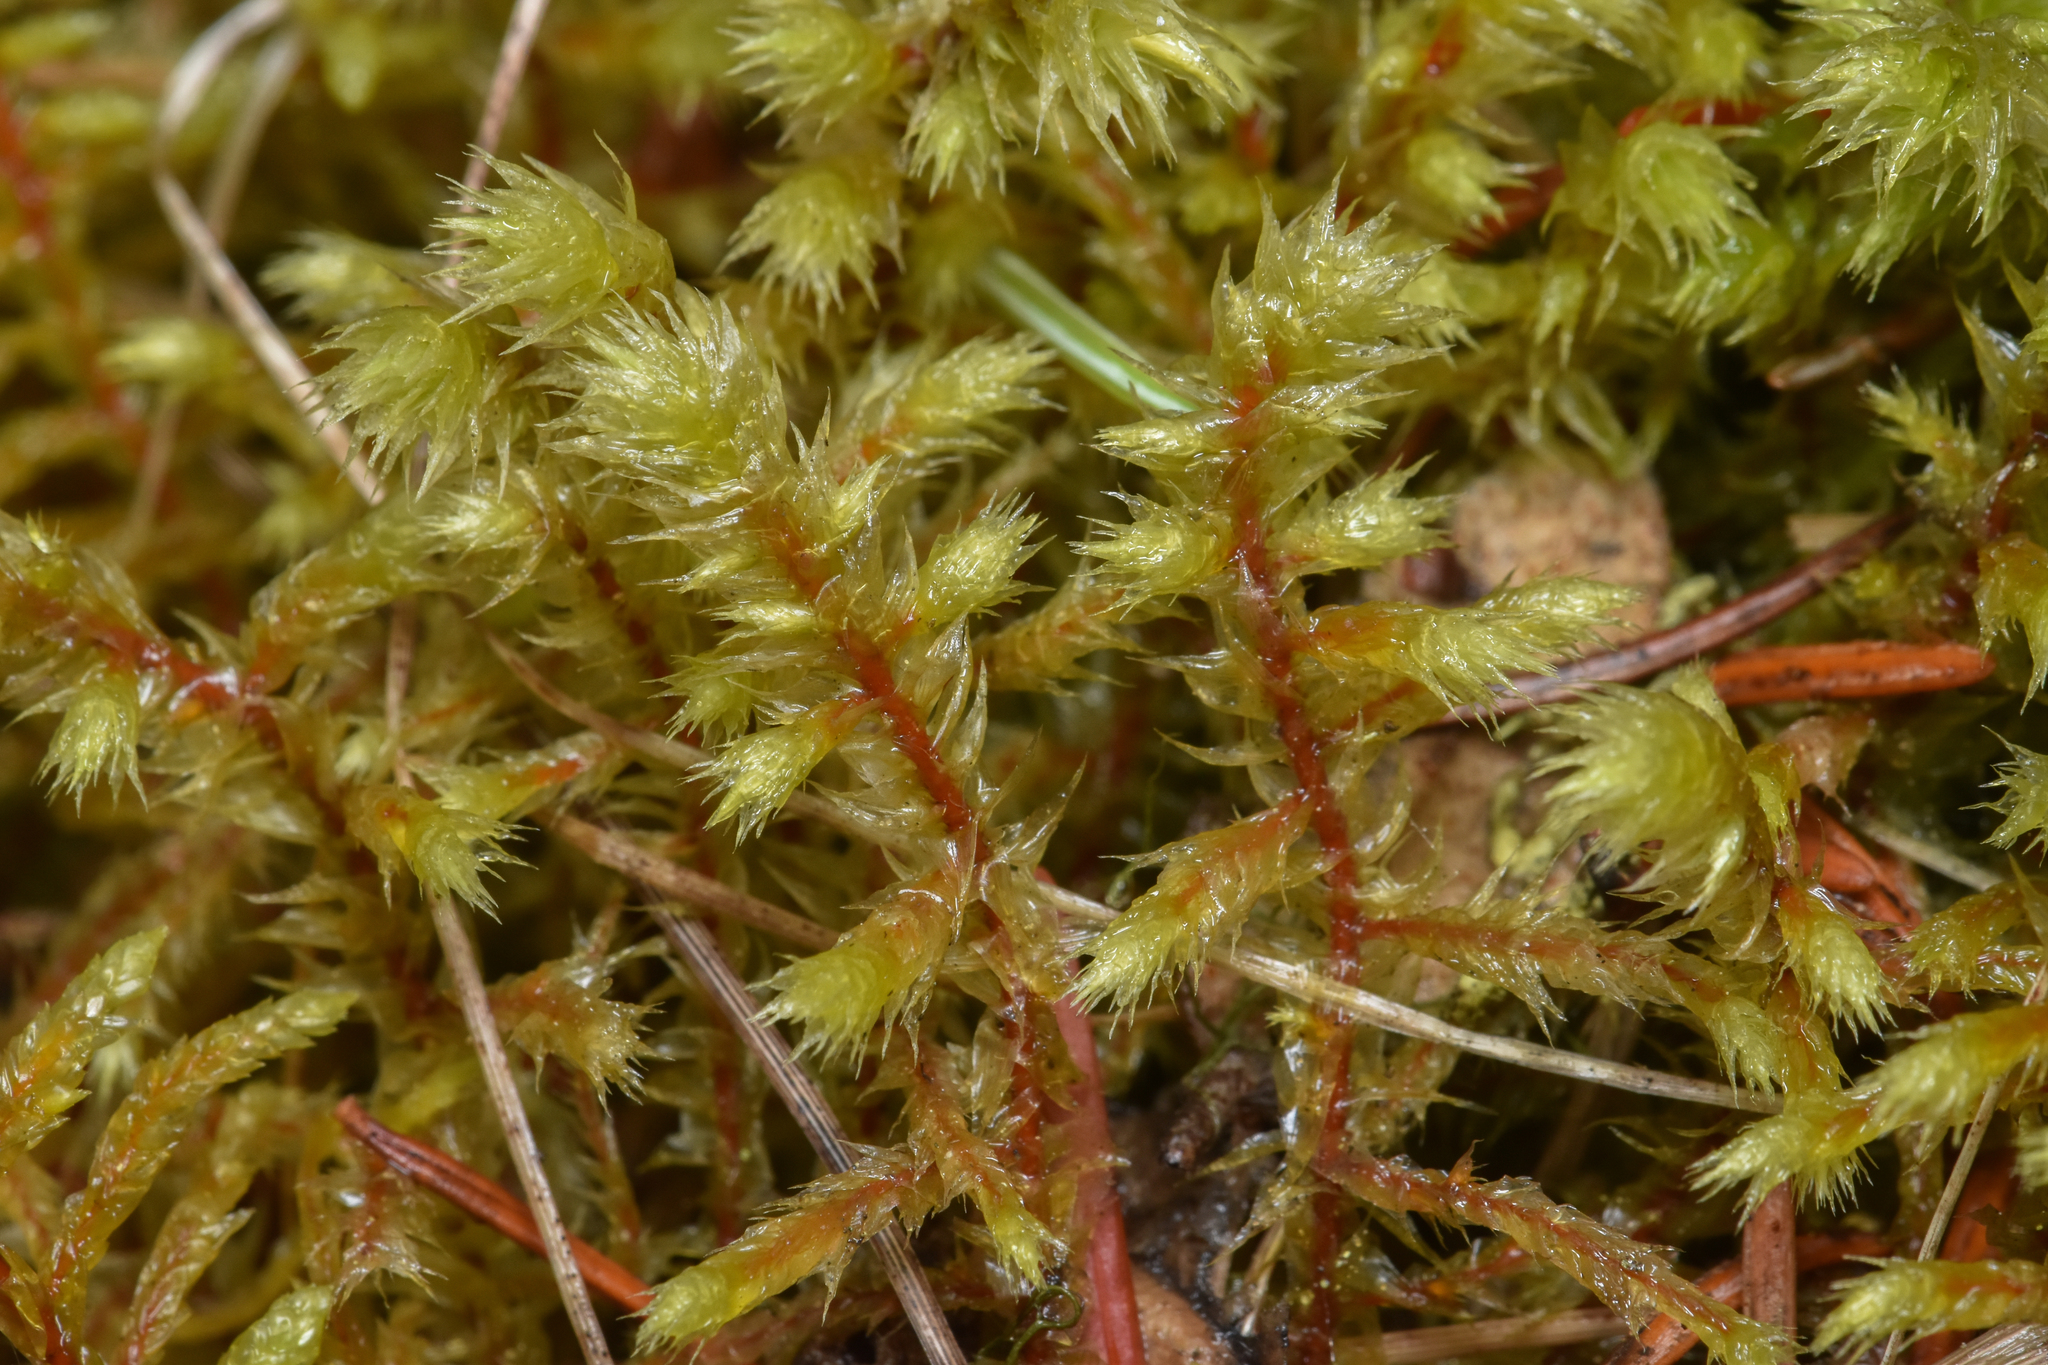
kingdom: Plantae
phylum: Bryophyta
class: Bryopsida
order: Hypnales
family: Hylocomiaceae
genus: Hylocomiadelphus
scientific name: Hylocomiadelphus triquetrus
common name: Rough goose neck moss
